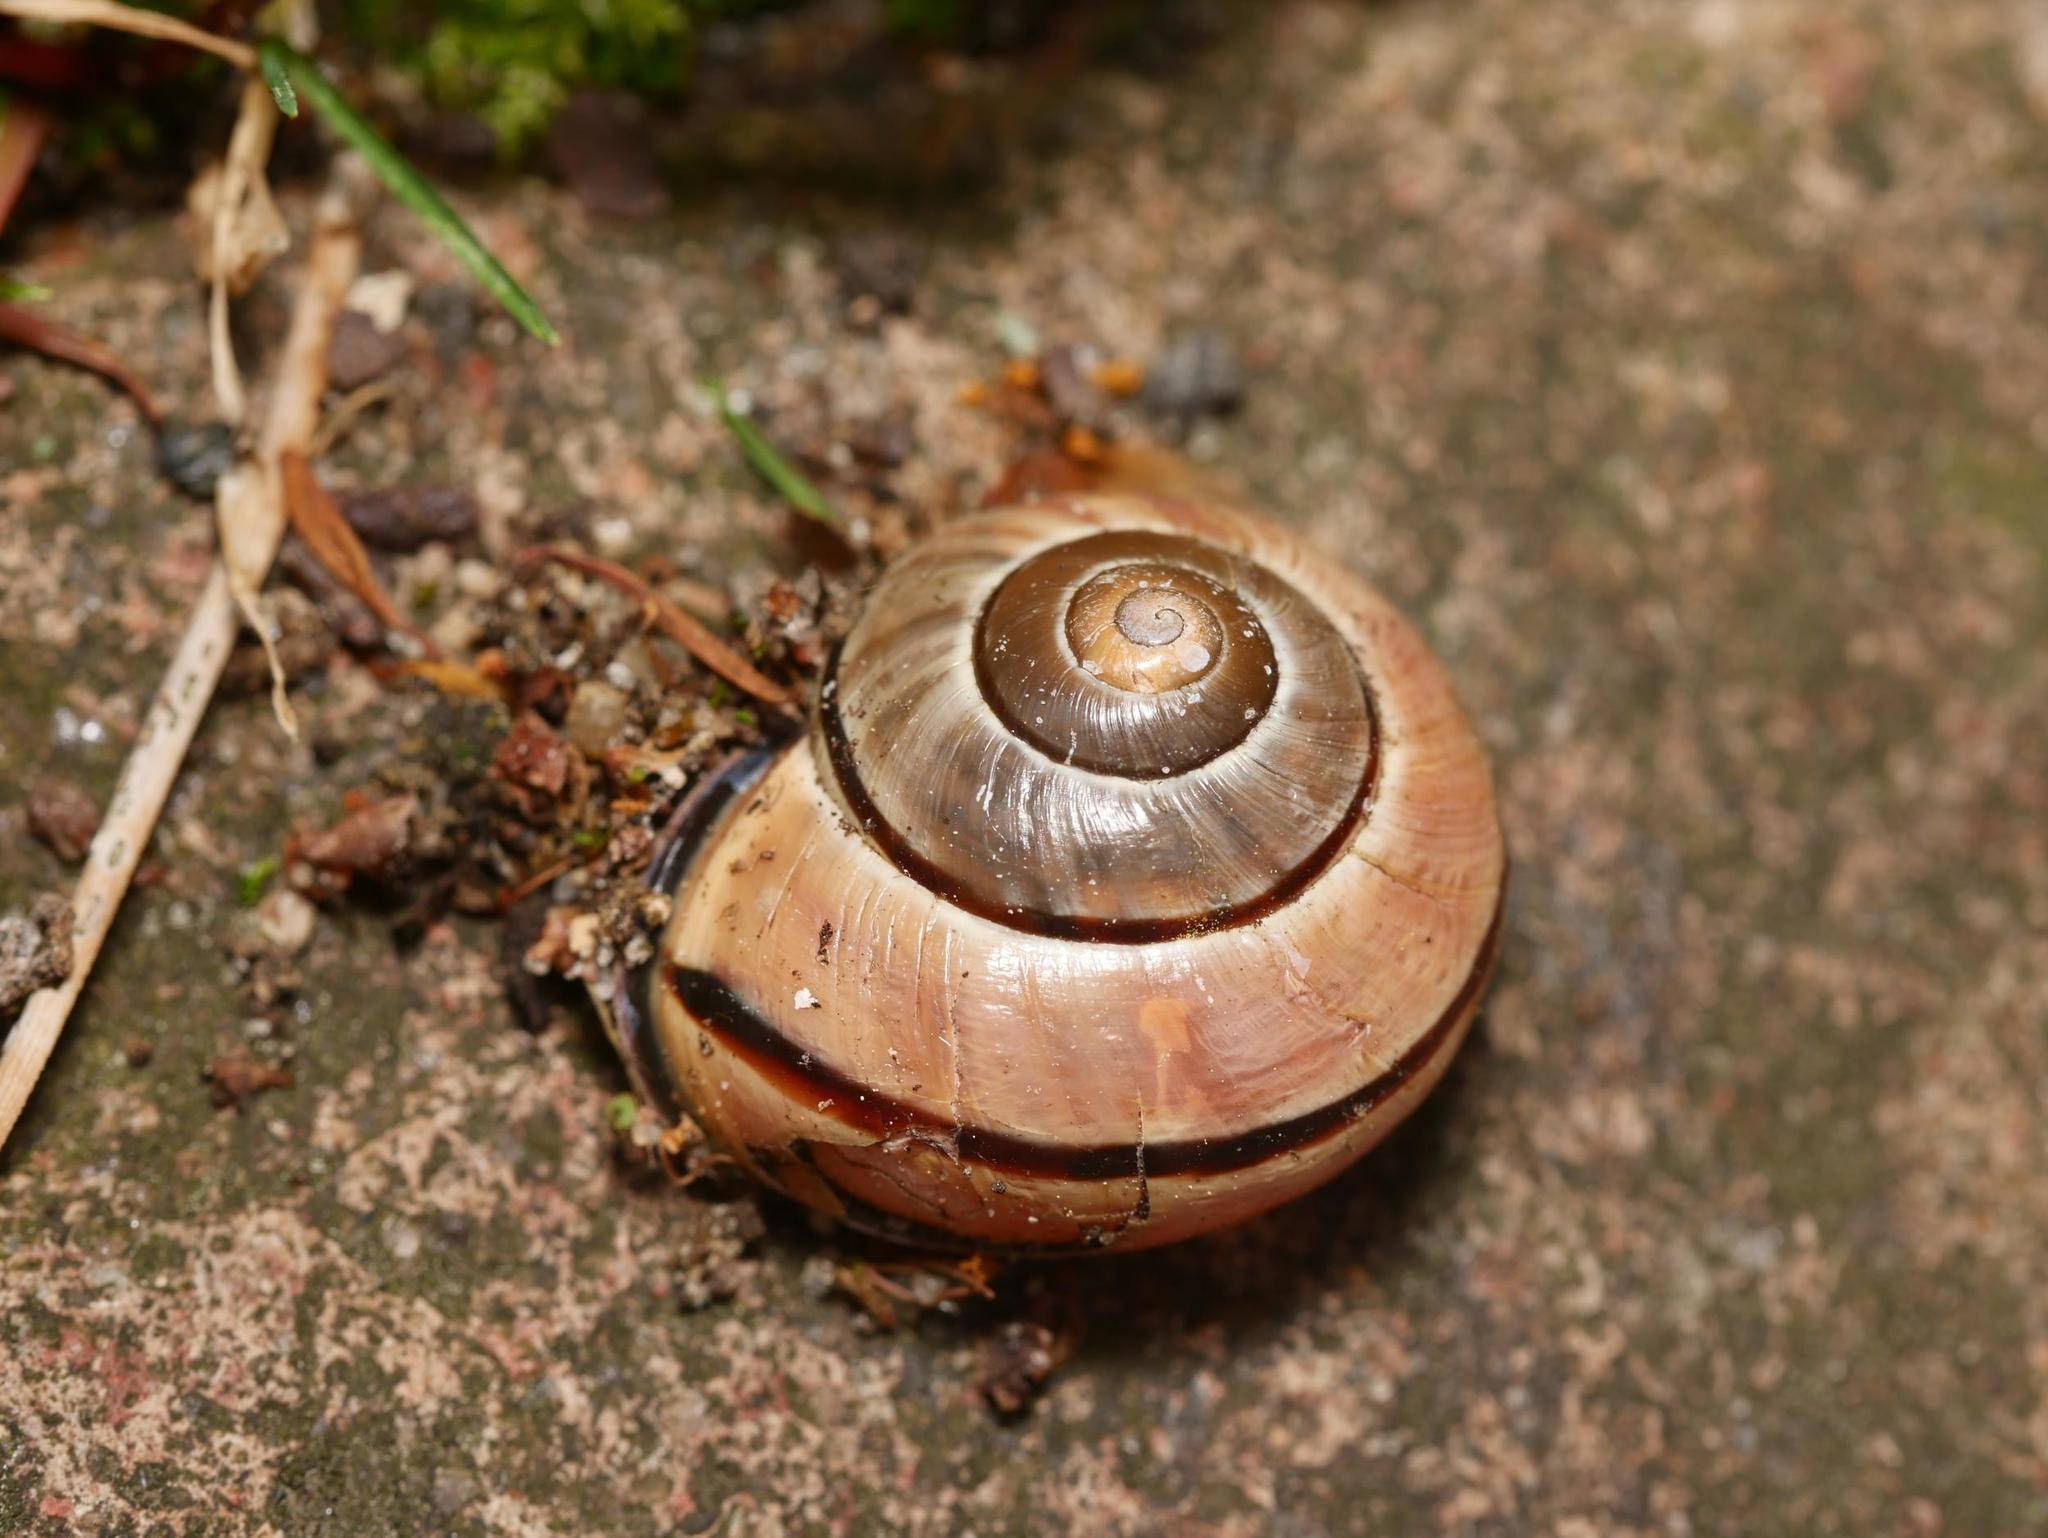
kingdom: Animalia
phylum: Mollusca
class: Gastropoda
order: Stylommatophora
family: Helicidae
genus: Cepaea
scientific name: Cepaea nemoralis
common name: Grovesnail
